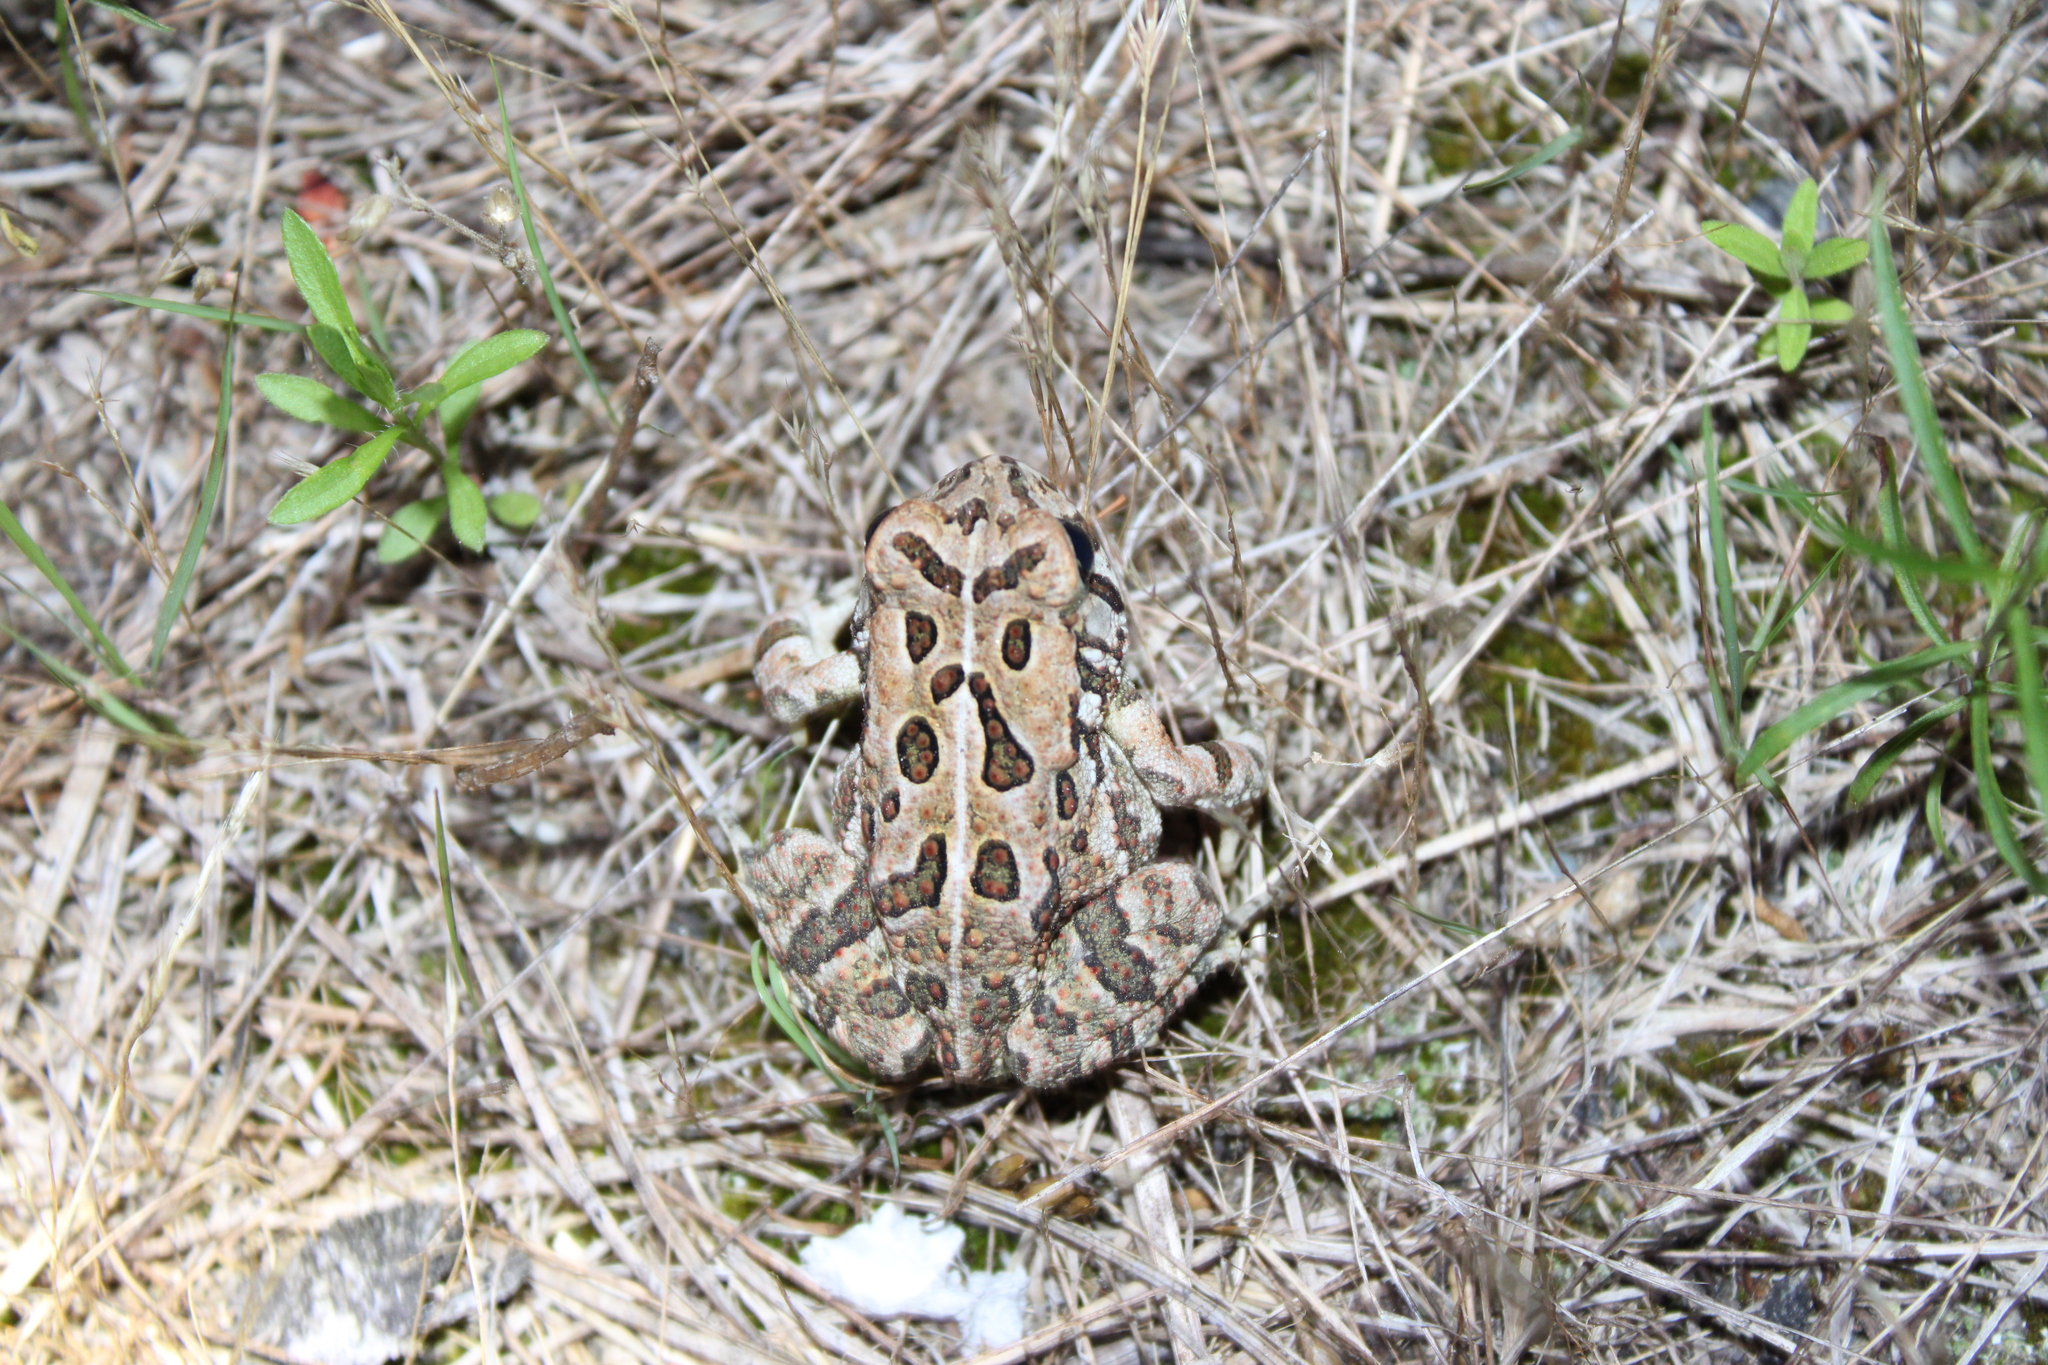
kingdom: Animalia
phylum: Chordata
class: Amphibia
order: Anura
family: Bufonidae
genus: Anaxyrus
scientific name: Anaxyrus fowleri
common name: Fowler's toad
